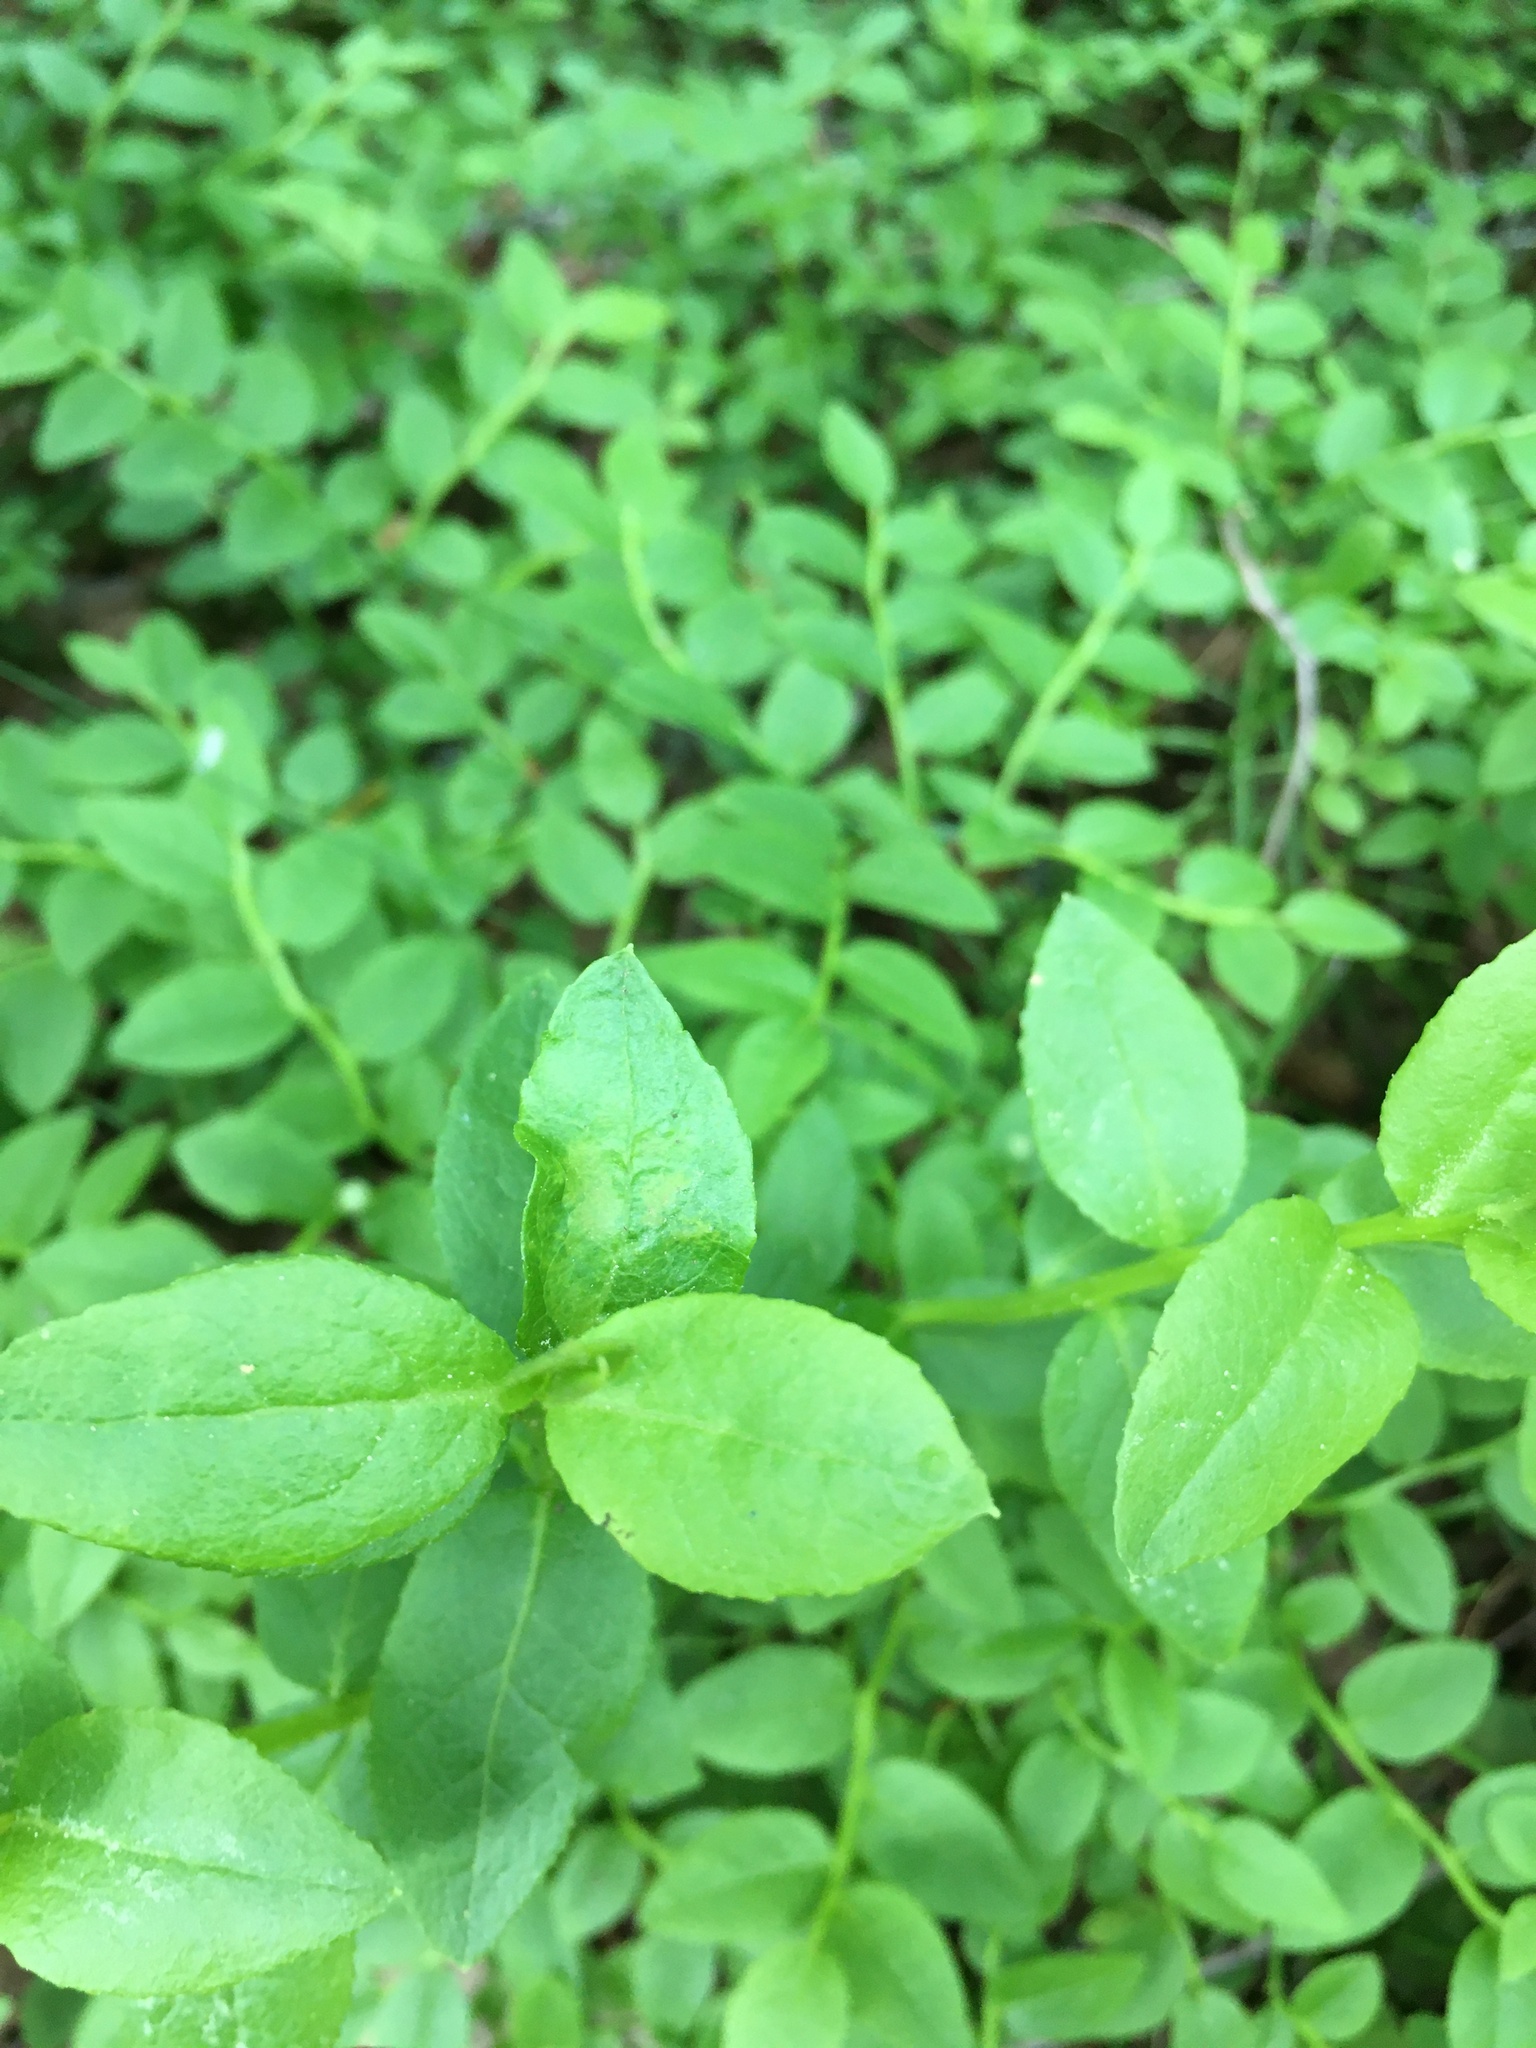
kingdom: Plantae
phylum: Tracheophyta
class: Magnoliopsida
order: Ericales
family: Ericaceae
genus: Vaccinium
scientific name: Vaccinium myrtillus
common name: Bilberry
